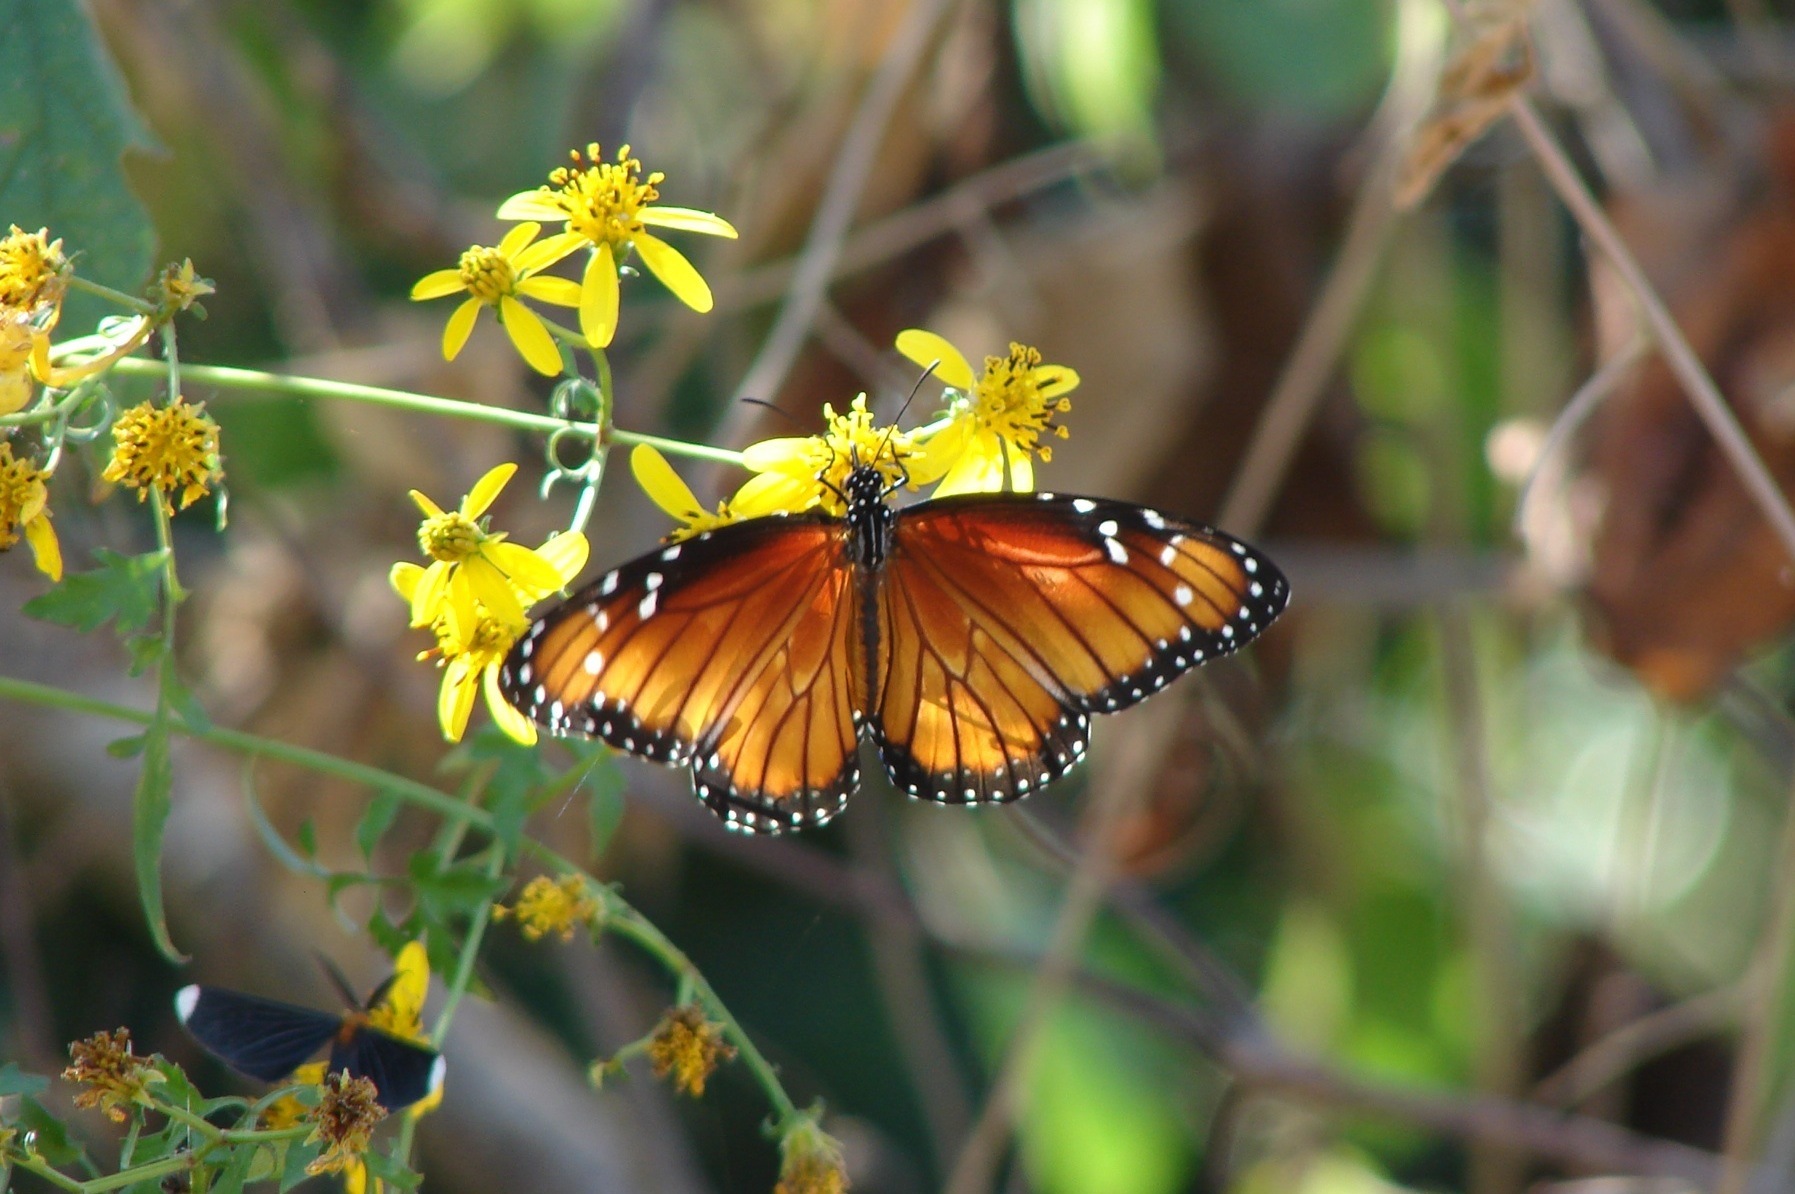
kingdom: Animalia
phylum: Arthropoda
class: Insecta
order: Lepidoptera
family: Nymphalidae
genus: Danaus
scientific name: Danaus eresimus
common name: Soldier
